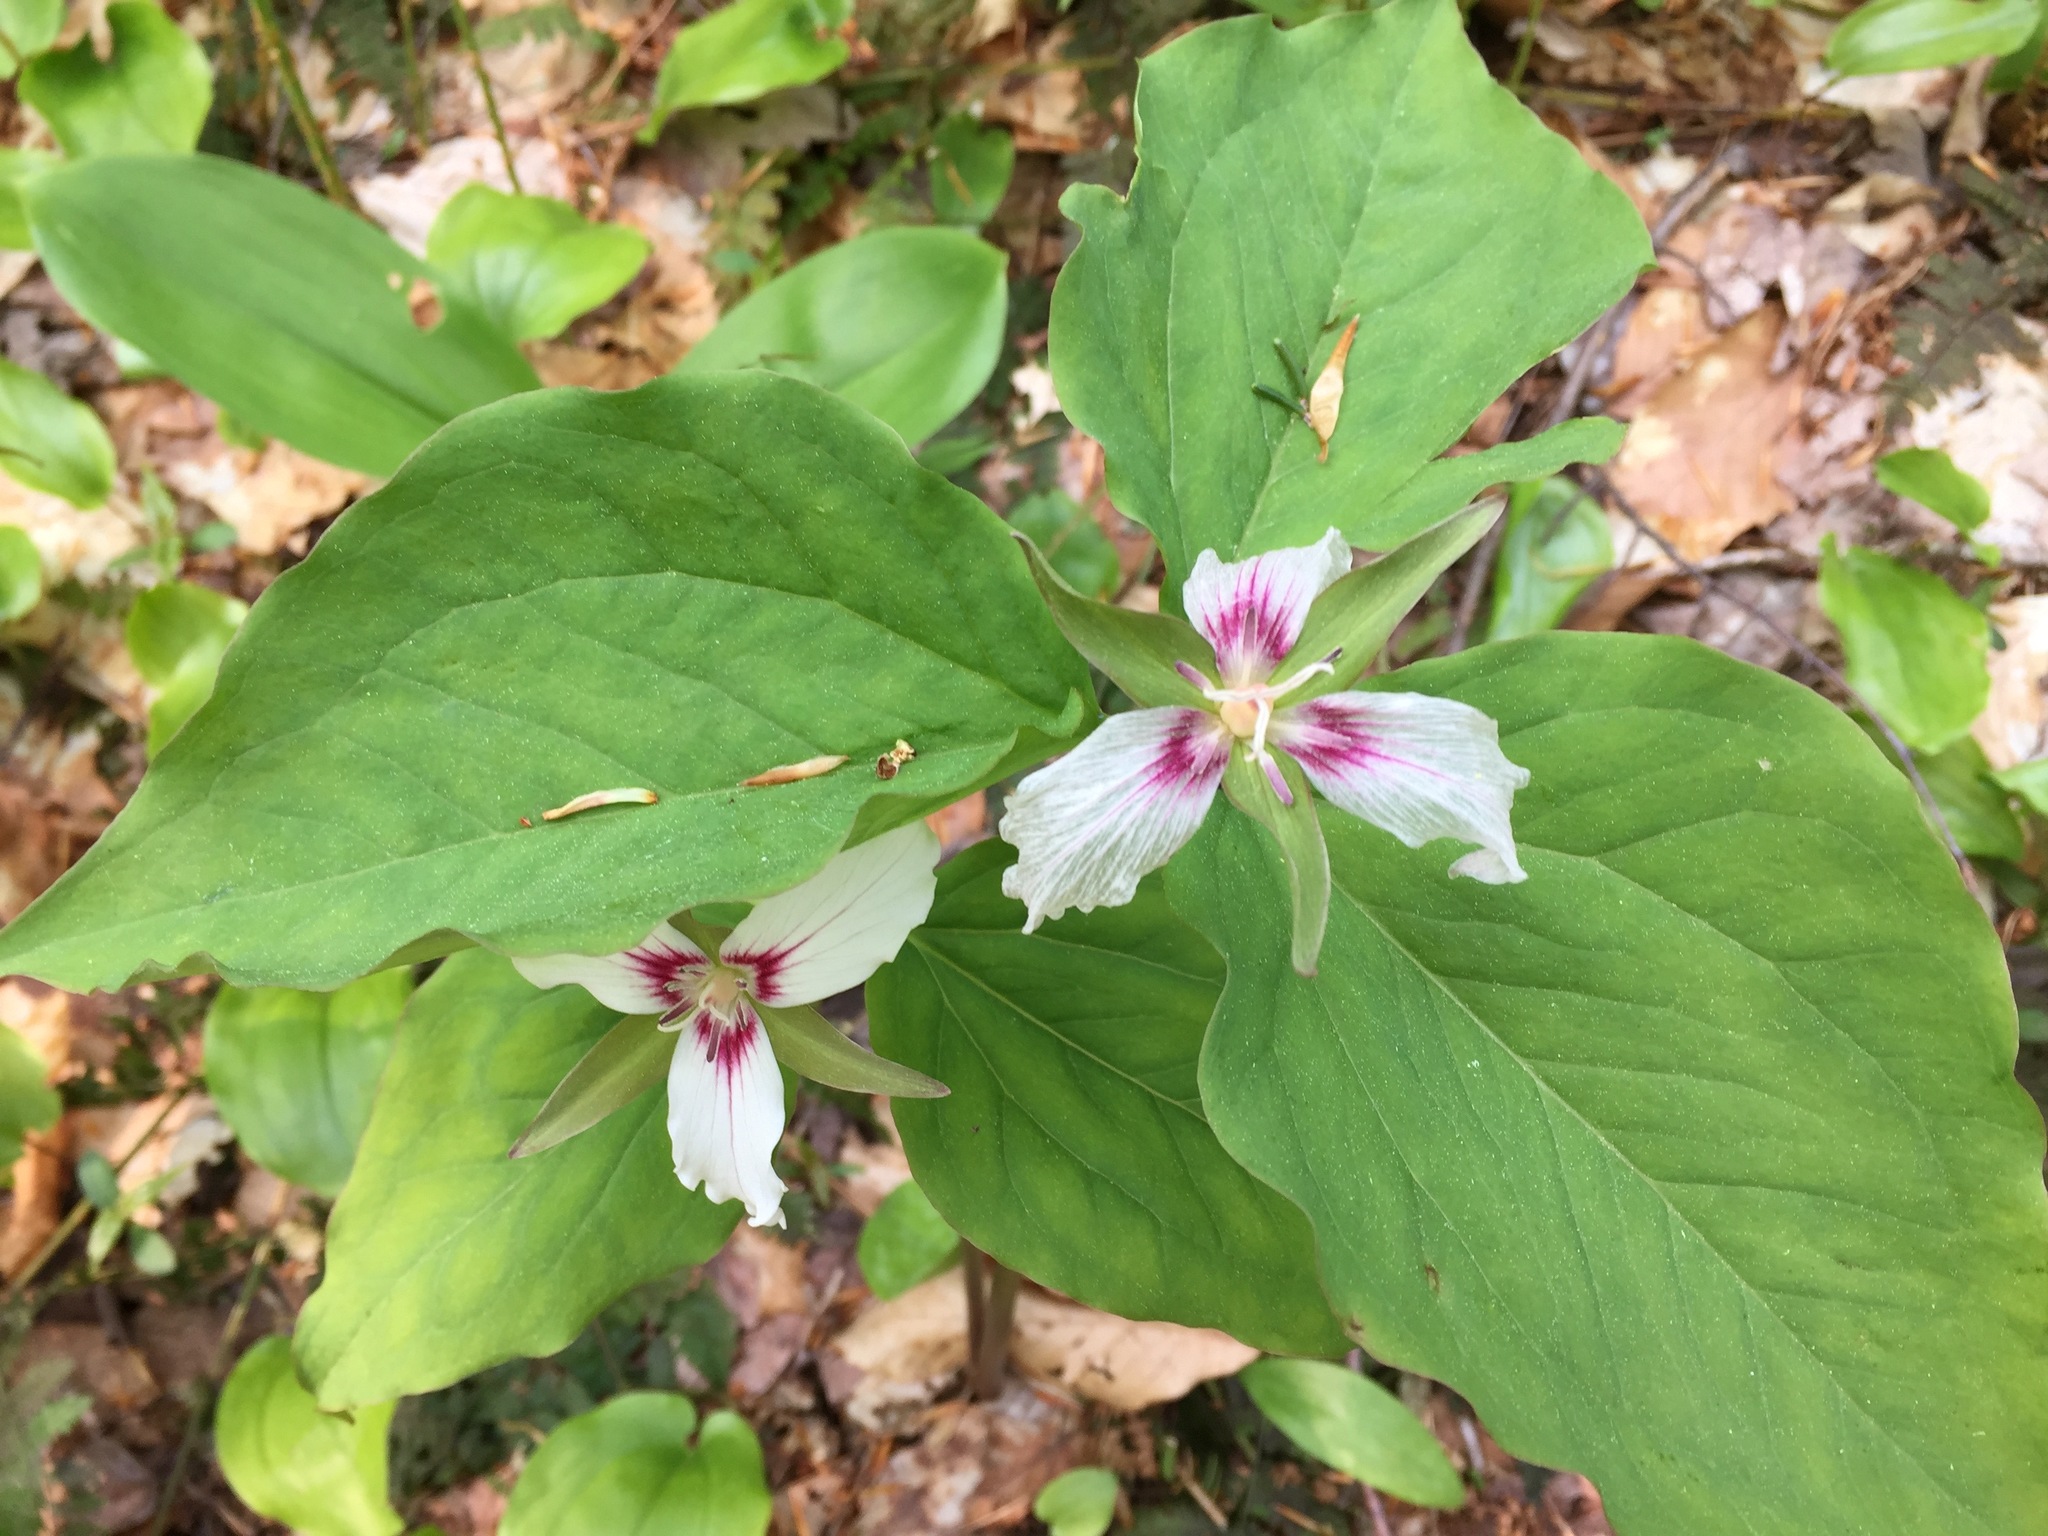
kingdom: Plantae
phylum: Tracheophyta
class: Liliopsida
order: Liliales
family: Melanthiaceae
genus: Trillium
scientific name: Trillium undulatum
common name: Paint trillium
